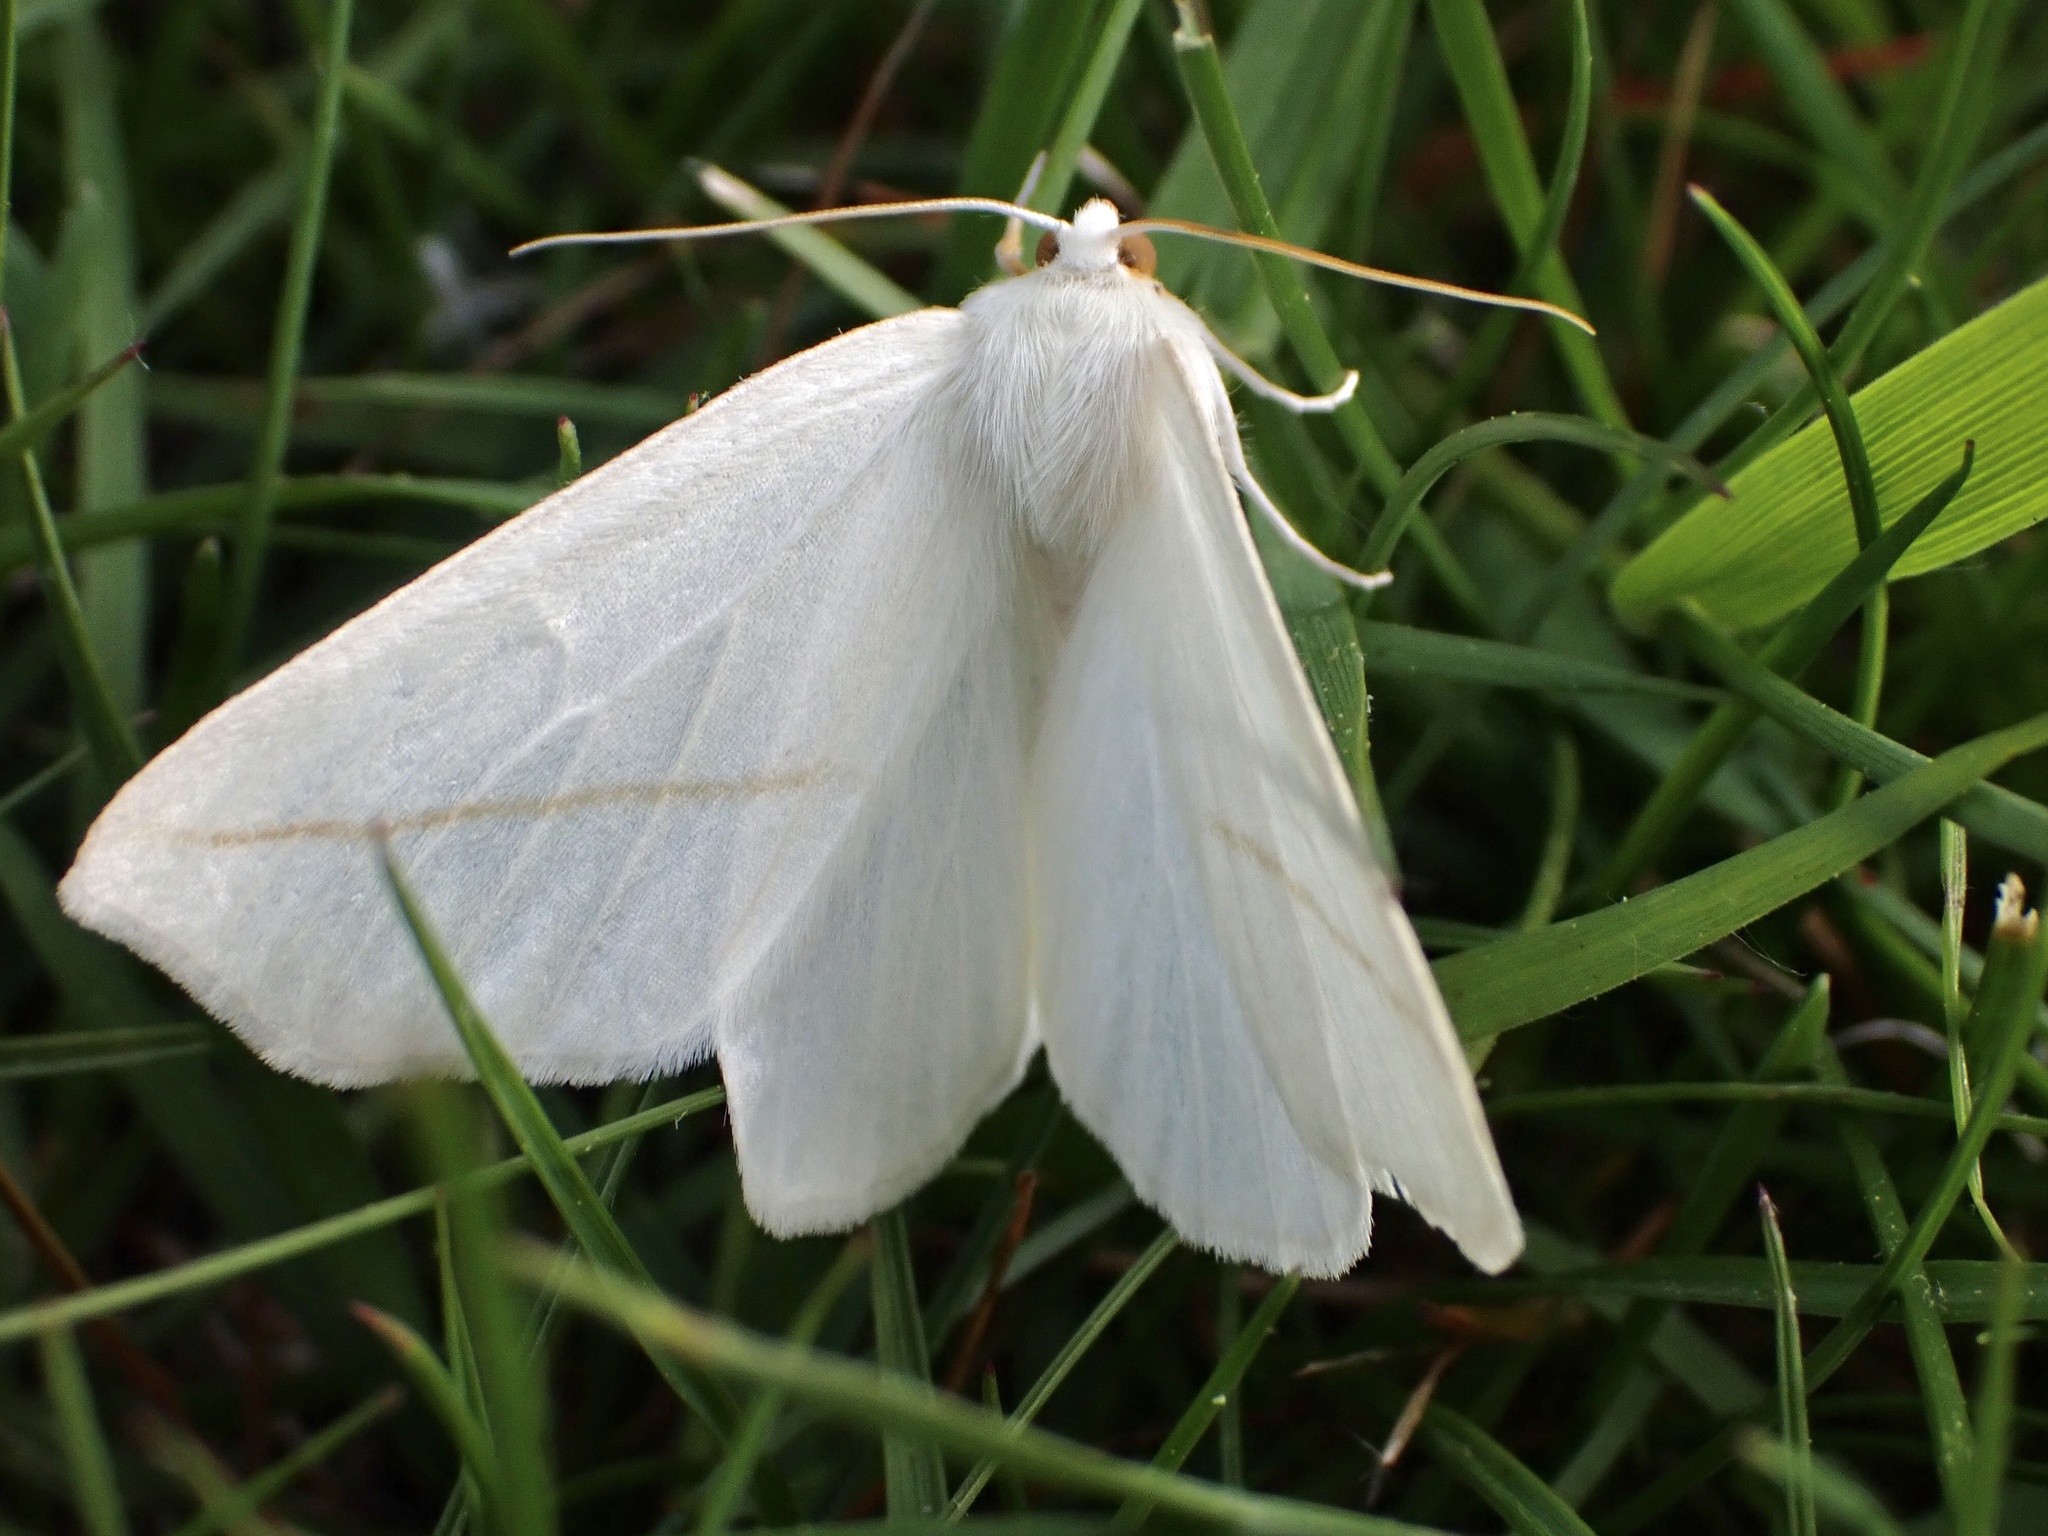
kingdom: Animalia
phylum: Arthropoda
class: Insecta
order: Lepidoptera
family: Geometridae
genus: Tetracis
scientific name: Tetracis cachexiata
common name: White slant-line
